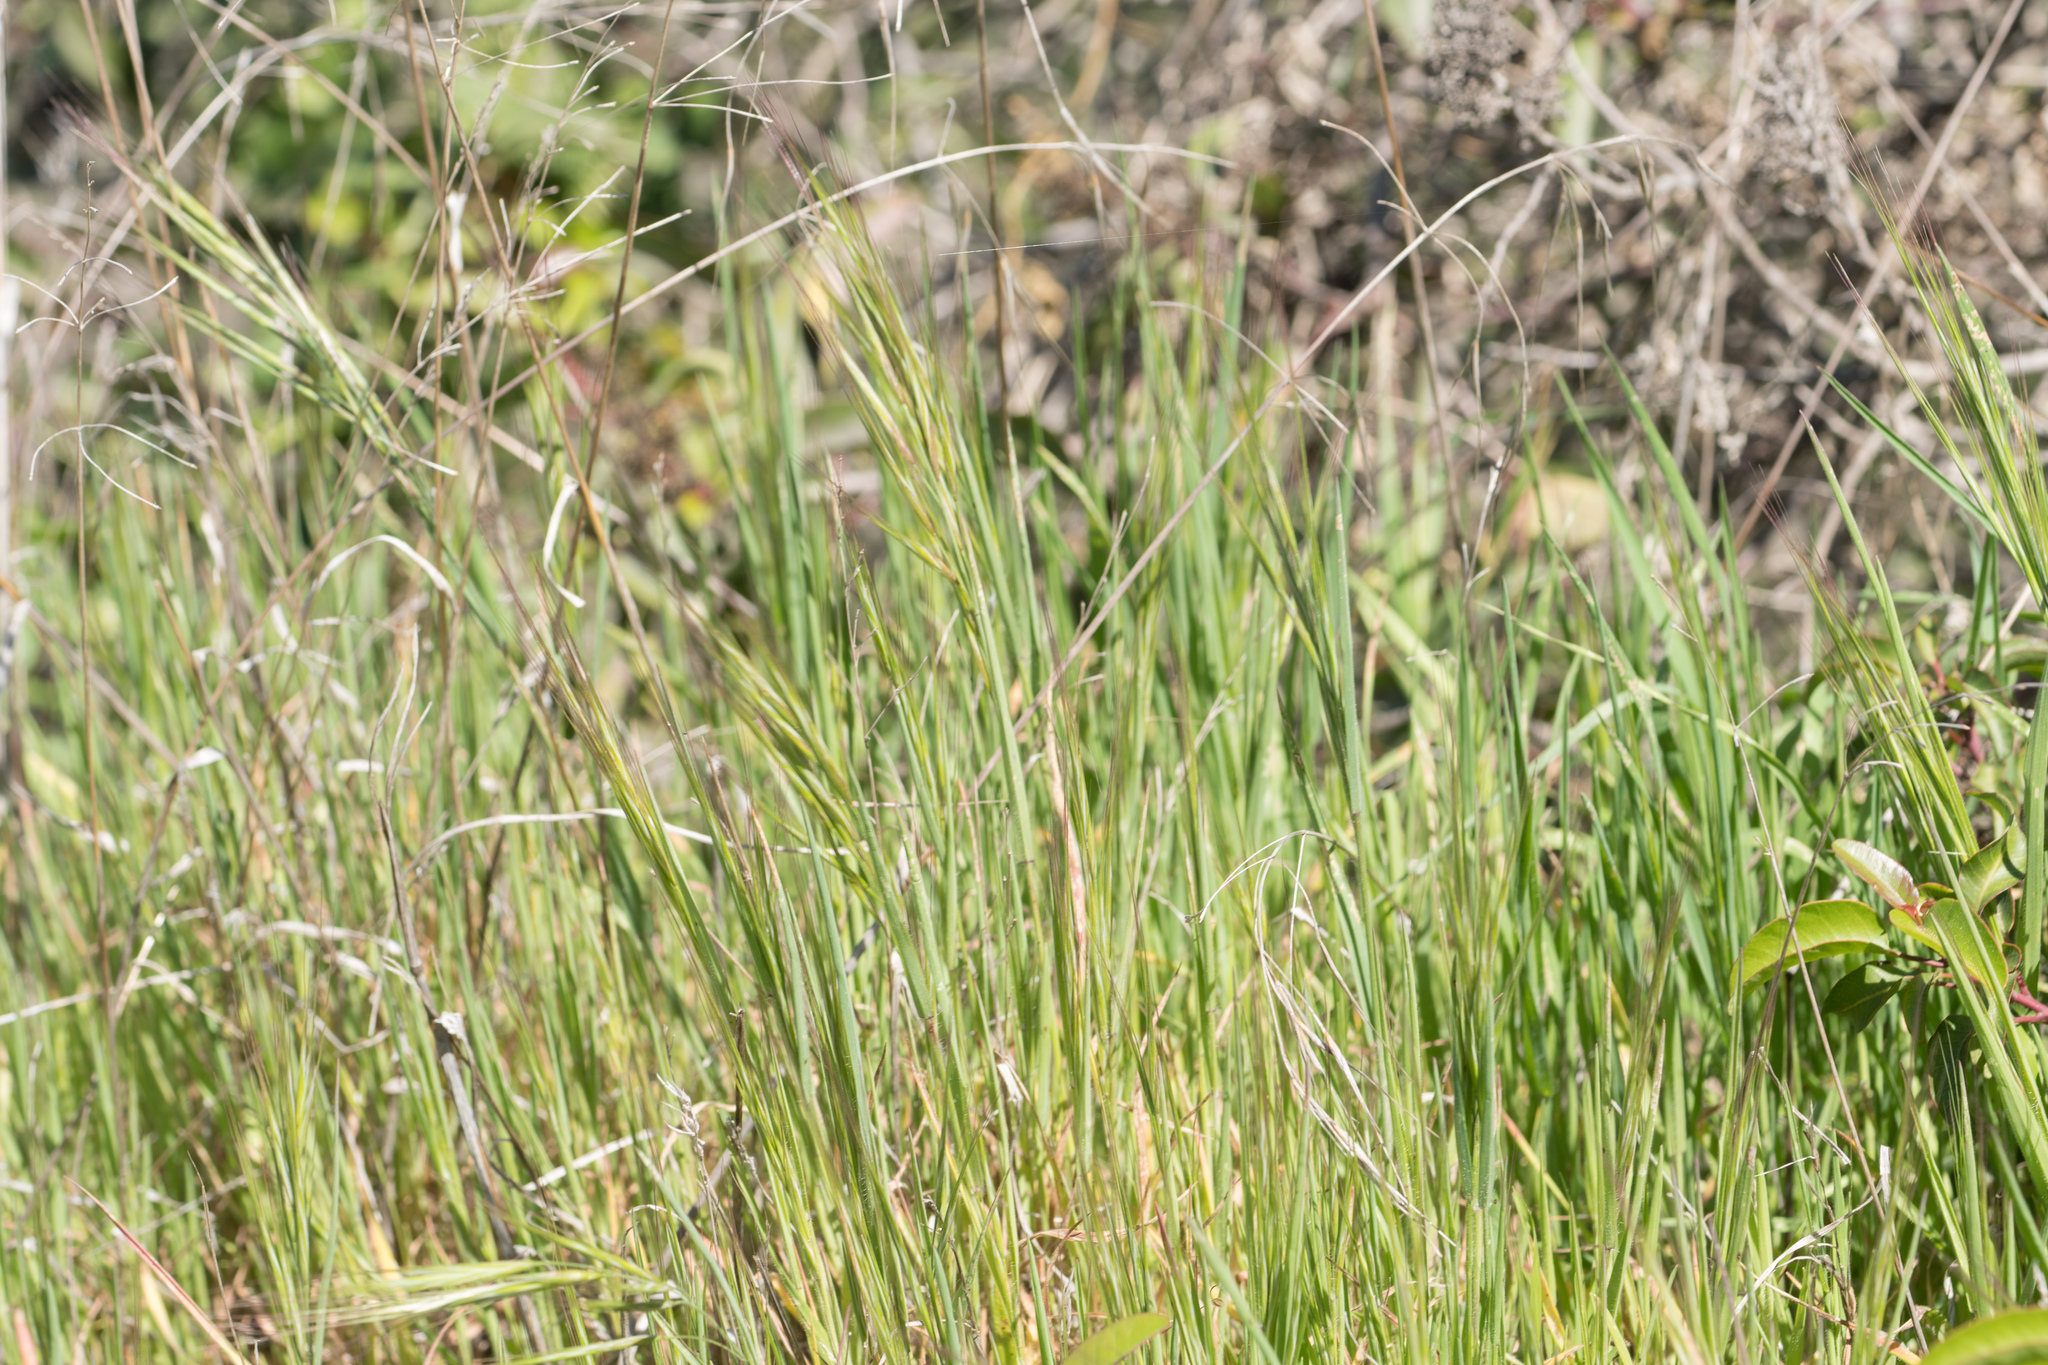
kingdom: Plantae
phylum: Tracheophyta
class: Liliopsida
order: Poales
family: Poaceae
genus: Bromus
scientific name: Bromus diandrus
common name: Ripgut brome
